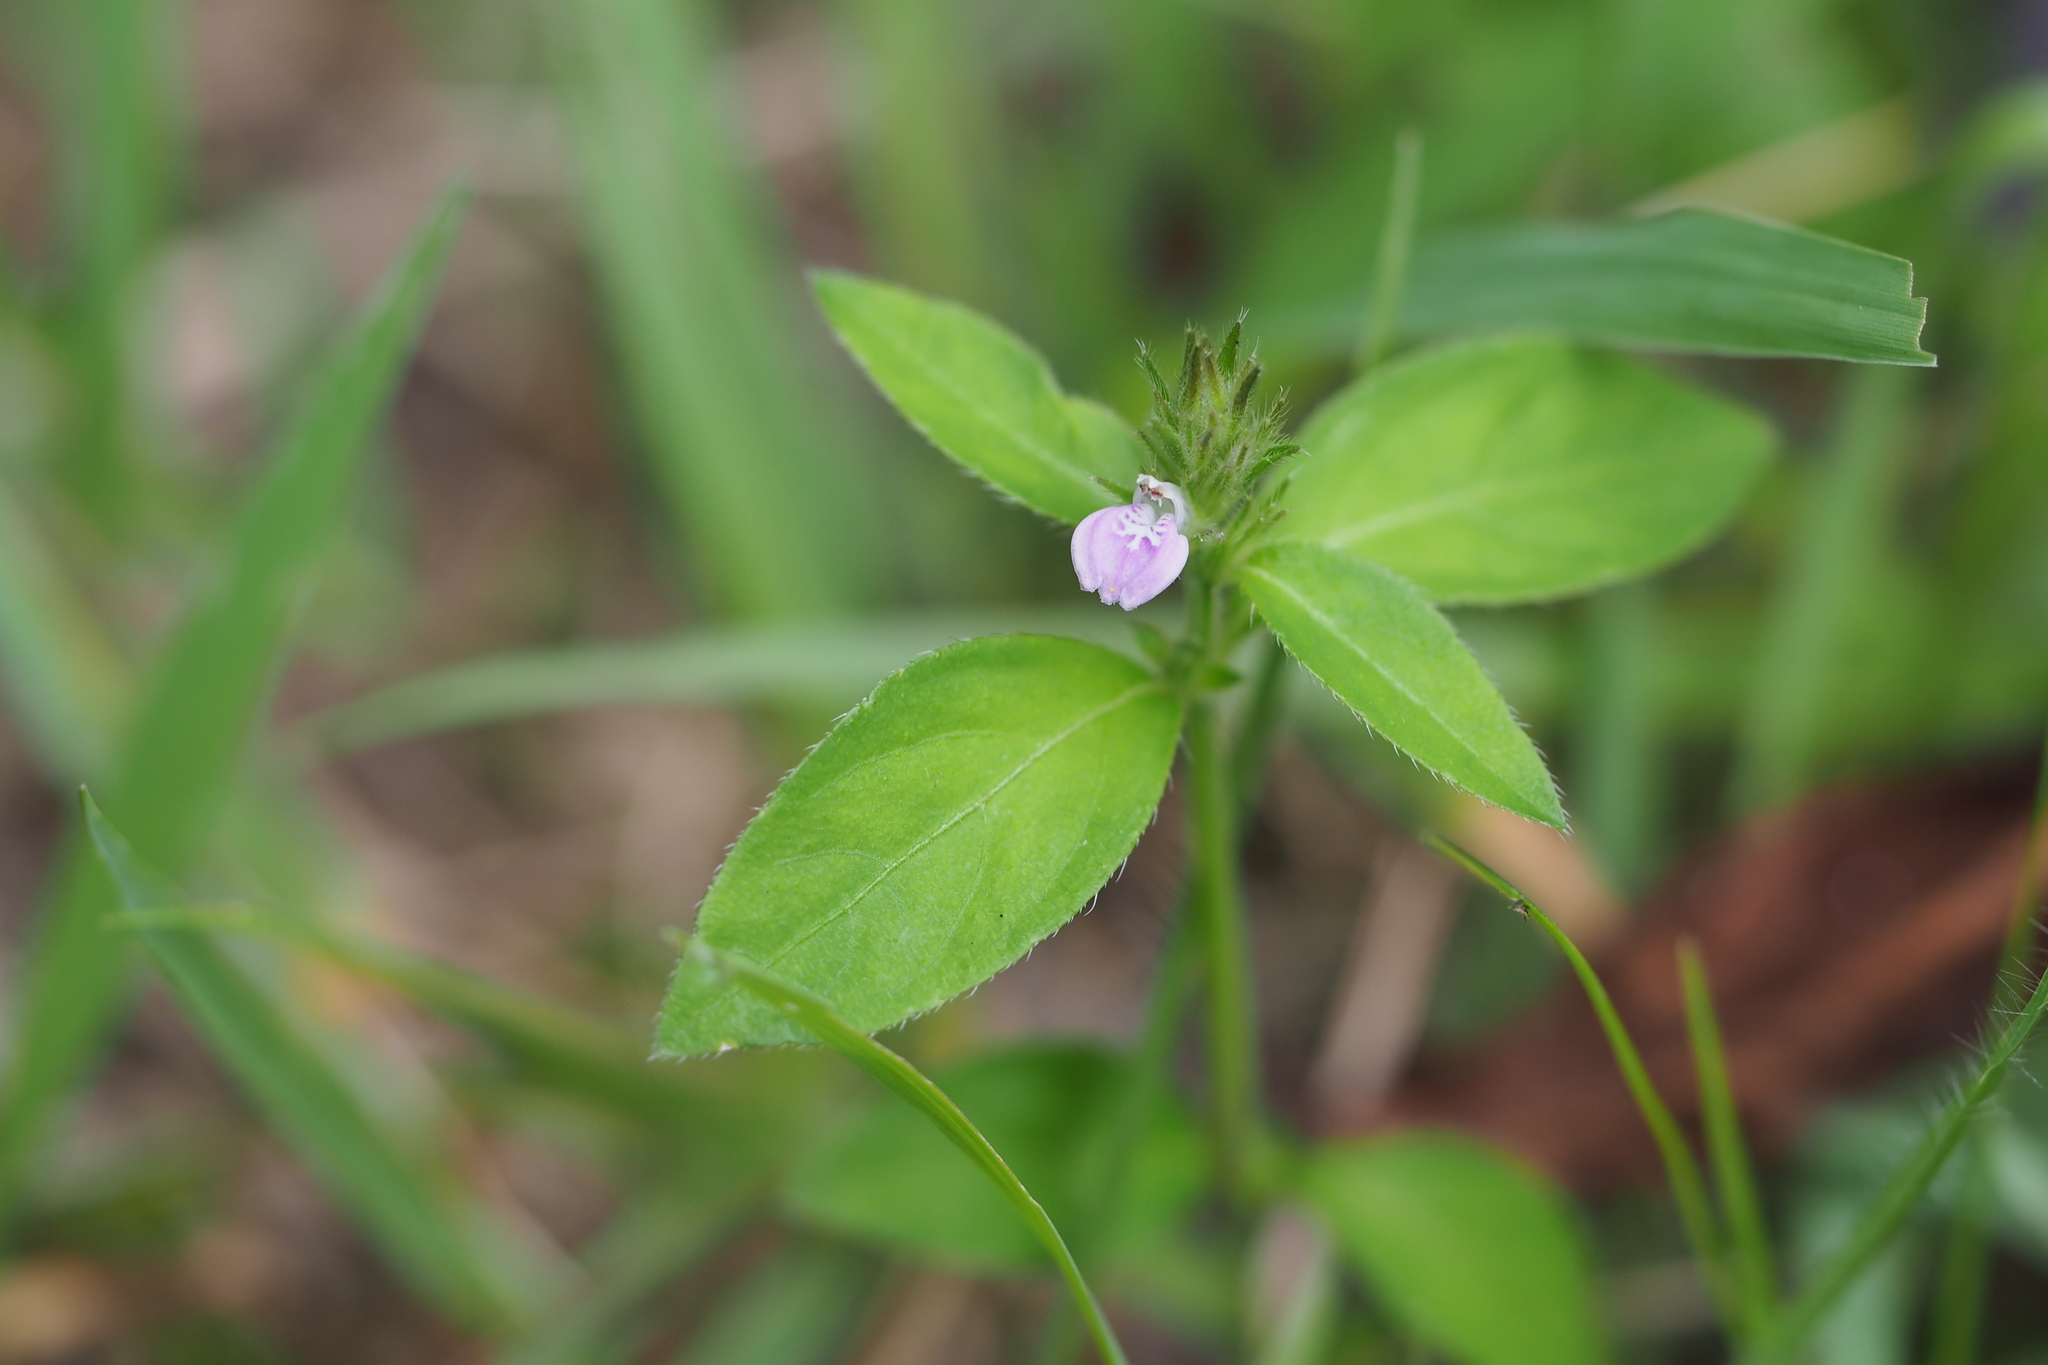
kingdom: Plantae
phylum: Tracheophyta
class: Magnoliopsida
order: Lamiales
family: Acanthaceae
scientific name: Acanthaceae
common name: Acanthaceae
